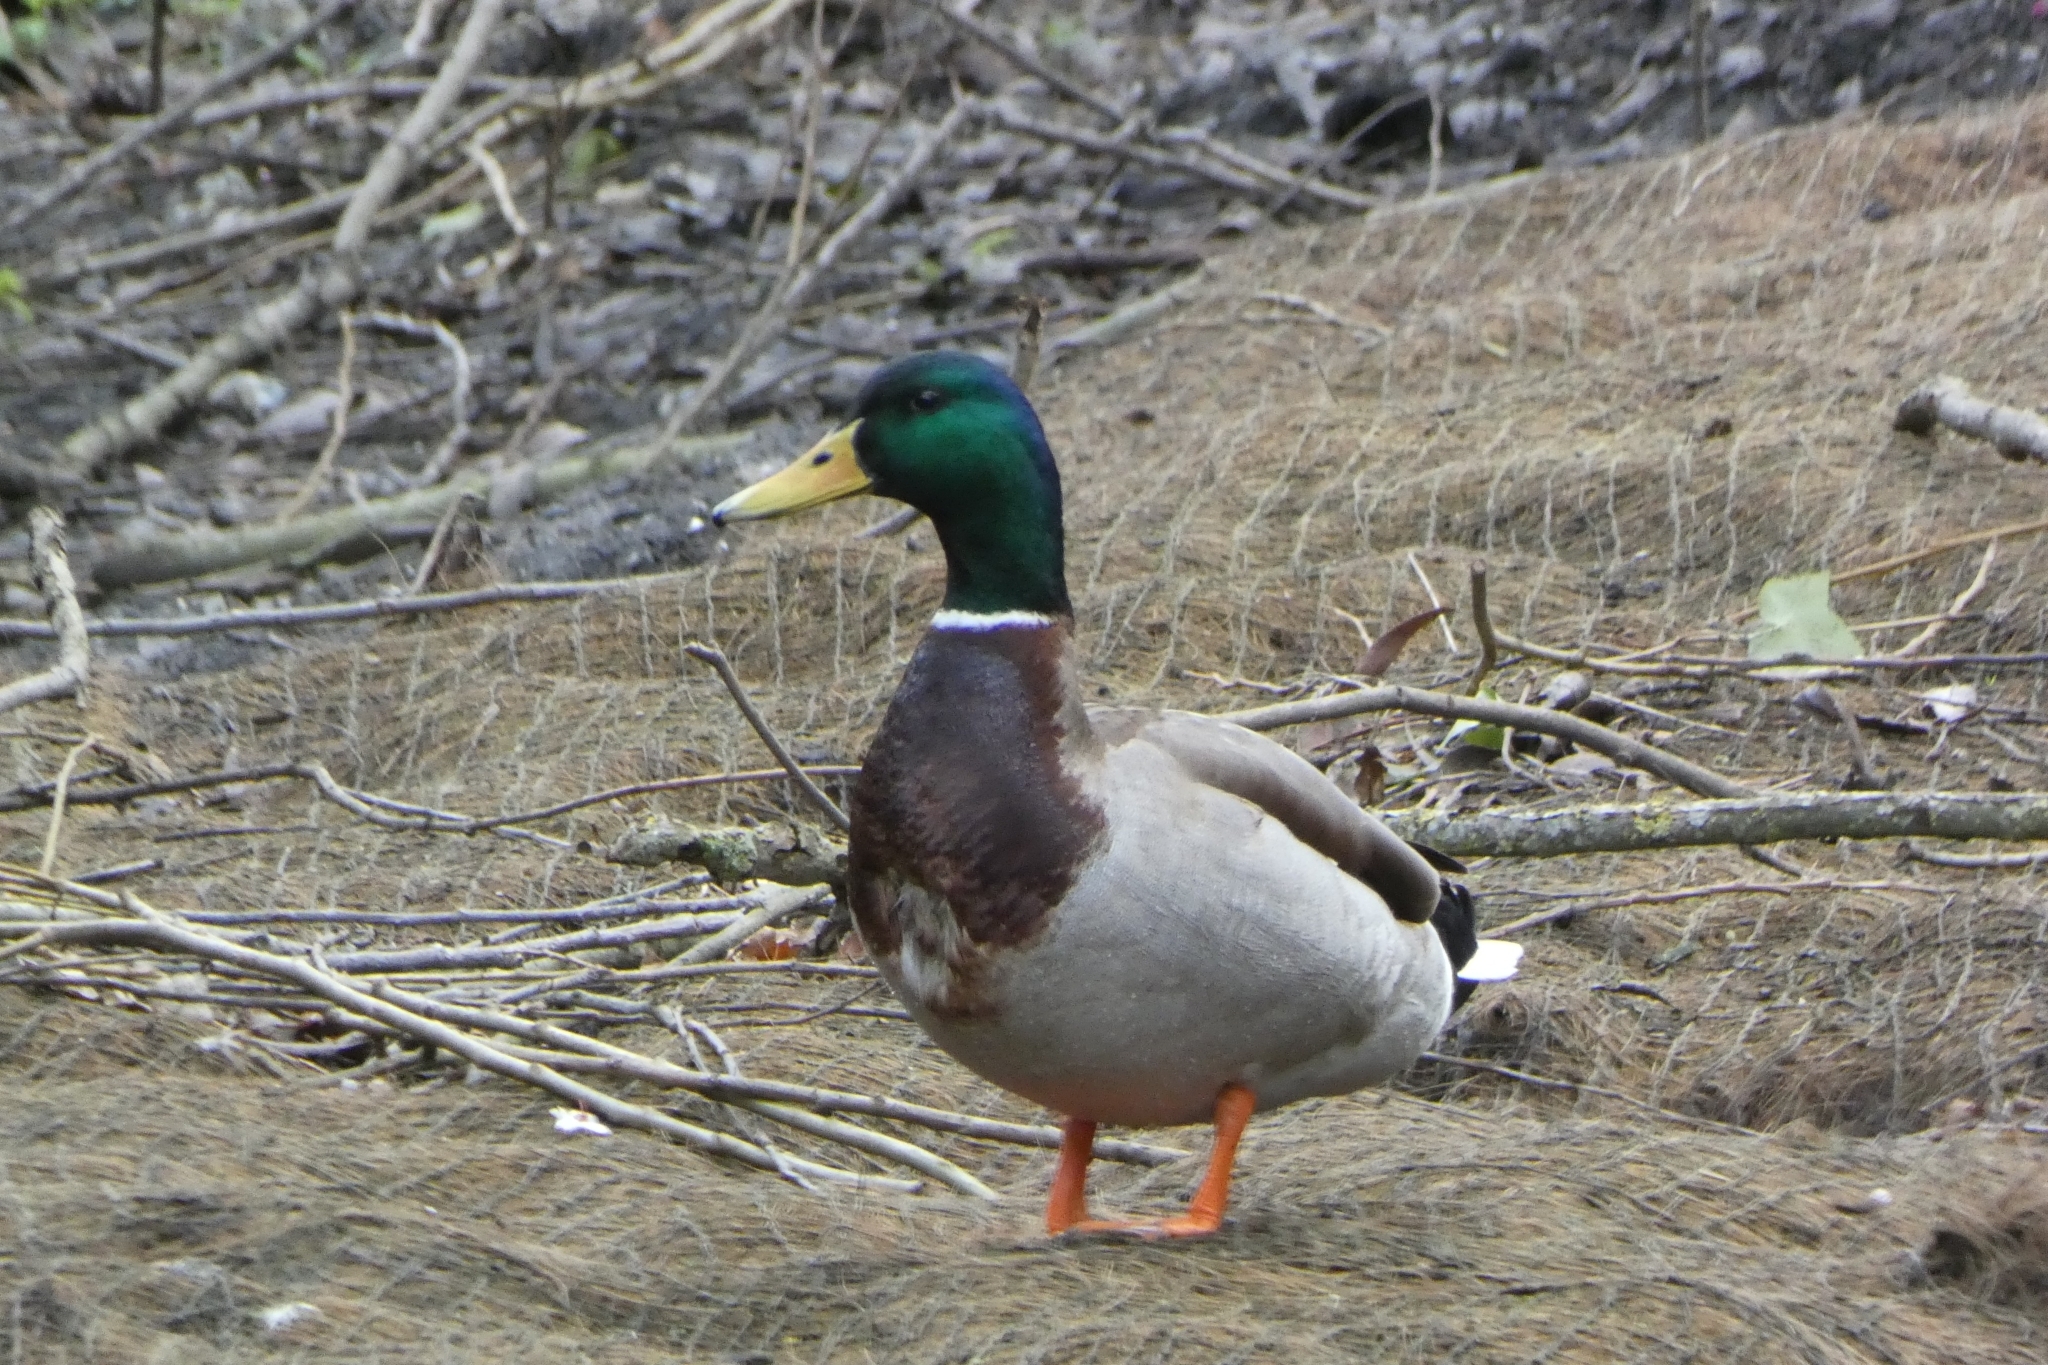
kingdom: Animalia
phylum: Chordata
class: Aves
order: Anseriformes
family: Anatidae
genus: Anas
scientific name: Anas platyrhynchos
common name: Mallard
